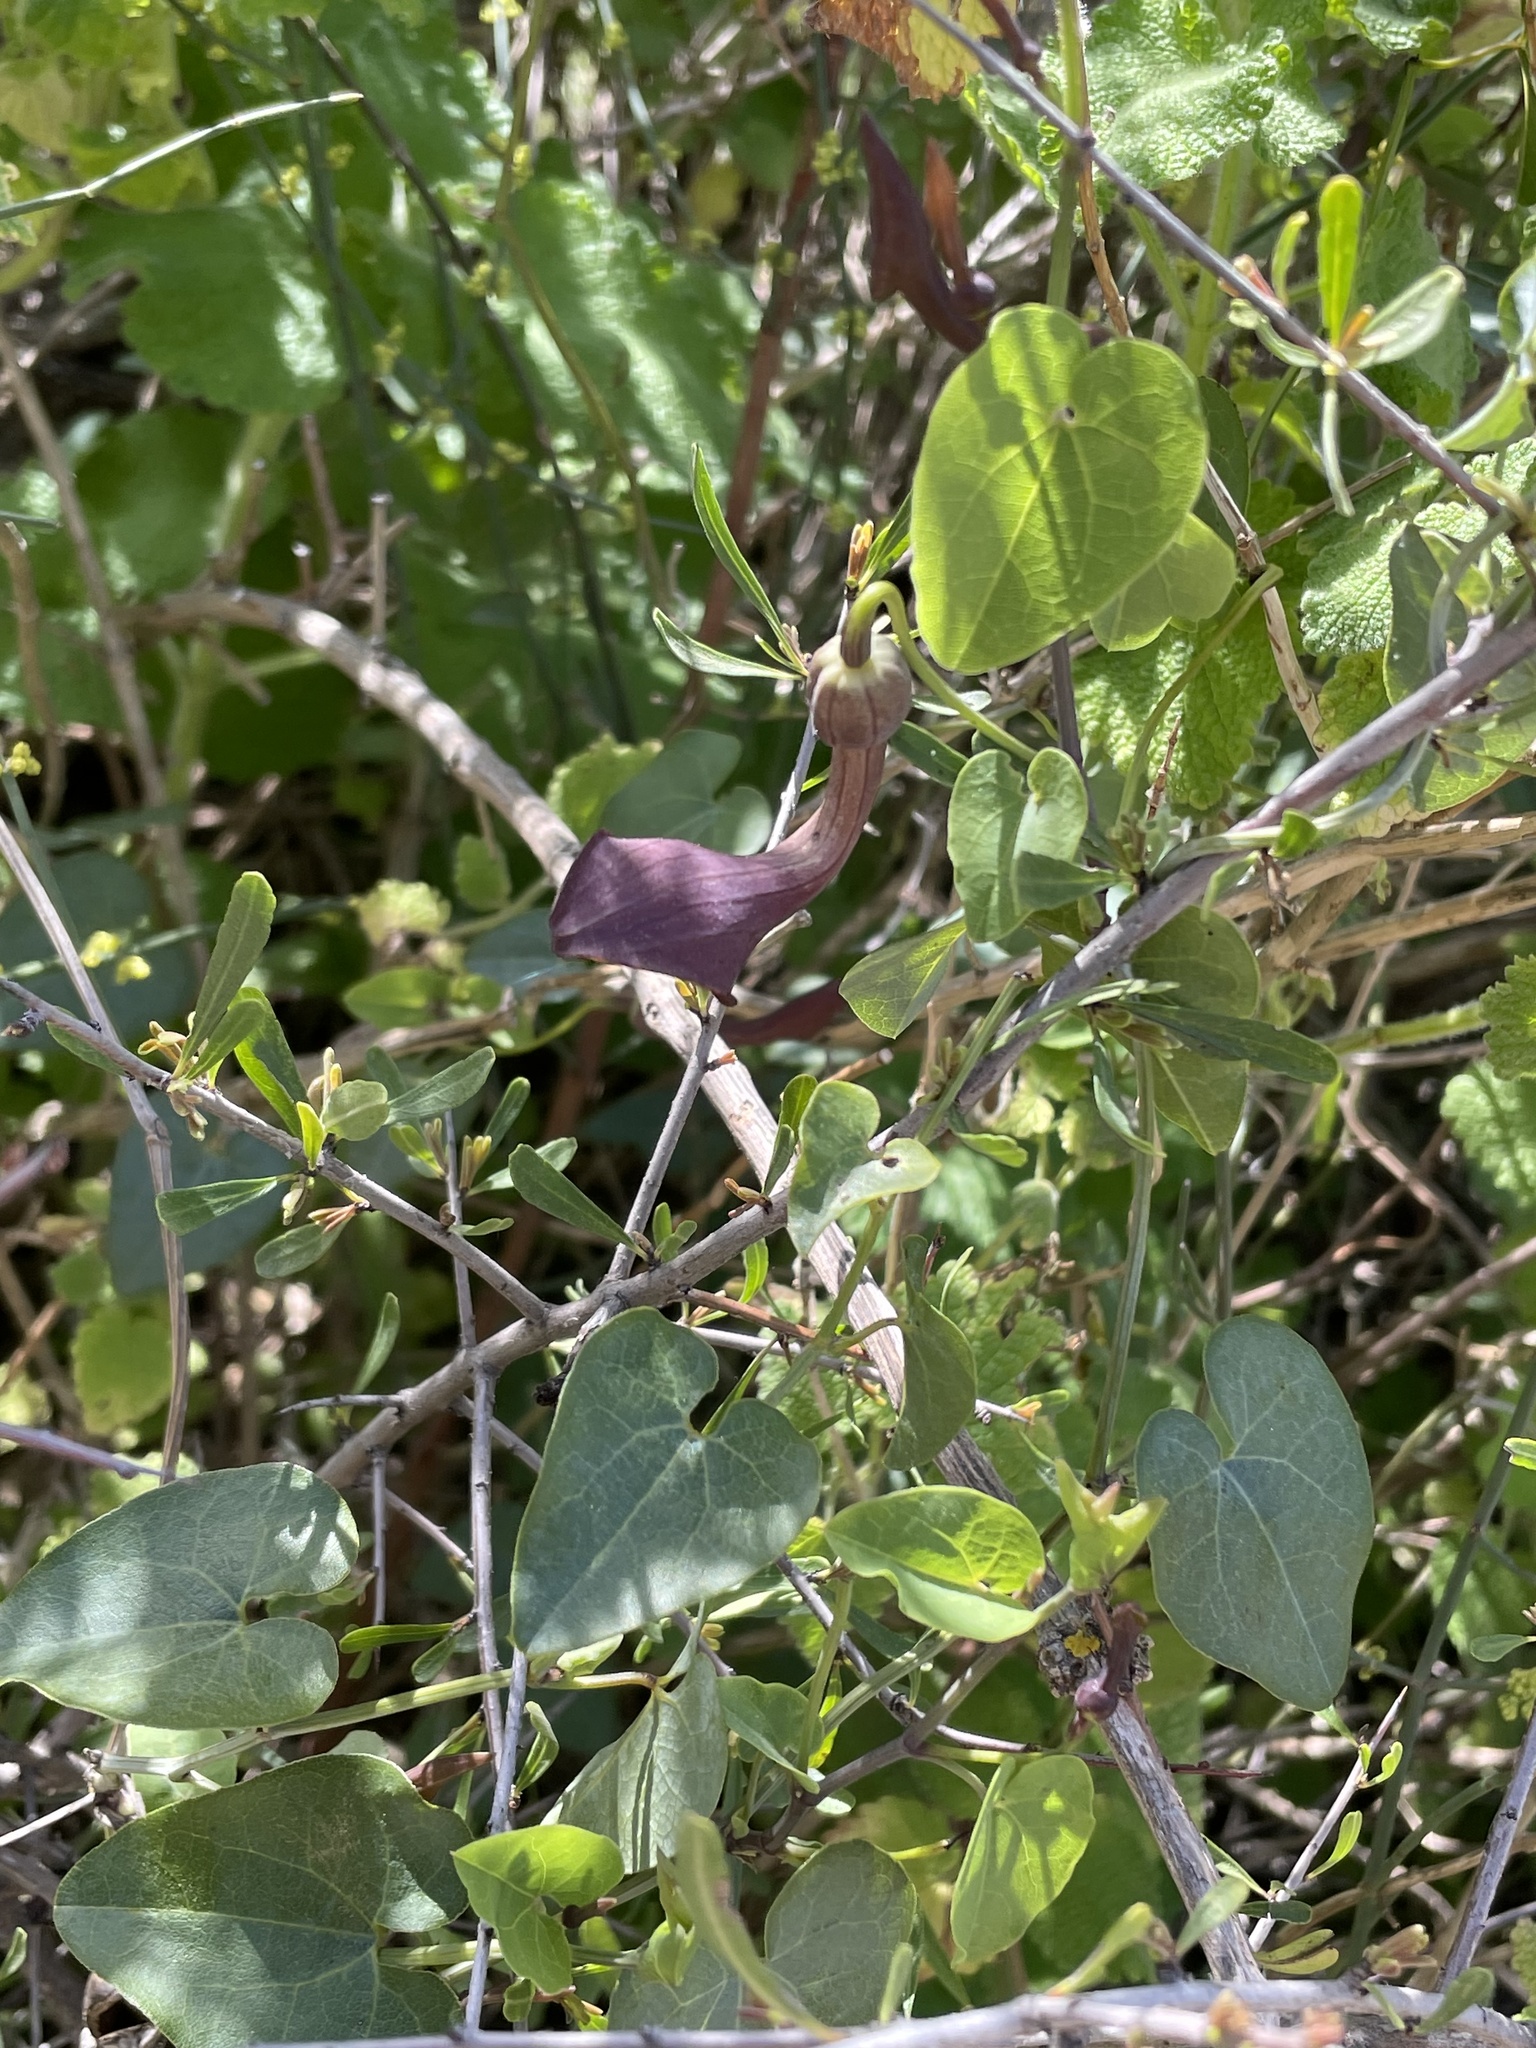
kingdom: Plantae
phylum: Tracheophyta
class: Magnoliopsida
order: Piperales
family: Aristolochiaceae
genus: Aristolochia
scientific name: Aristolochia baetica
